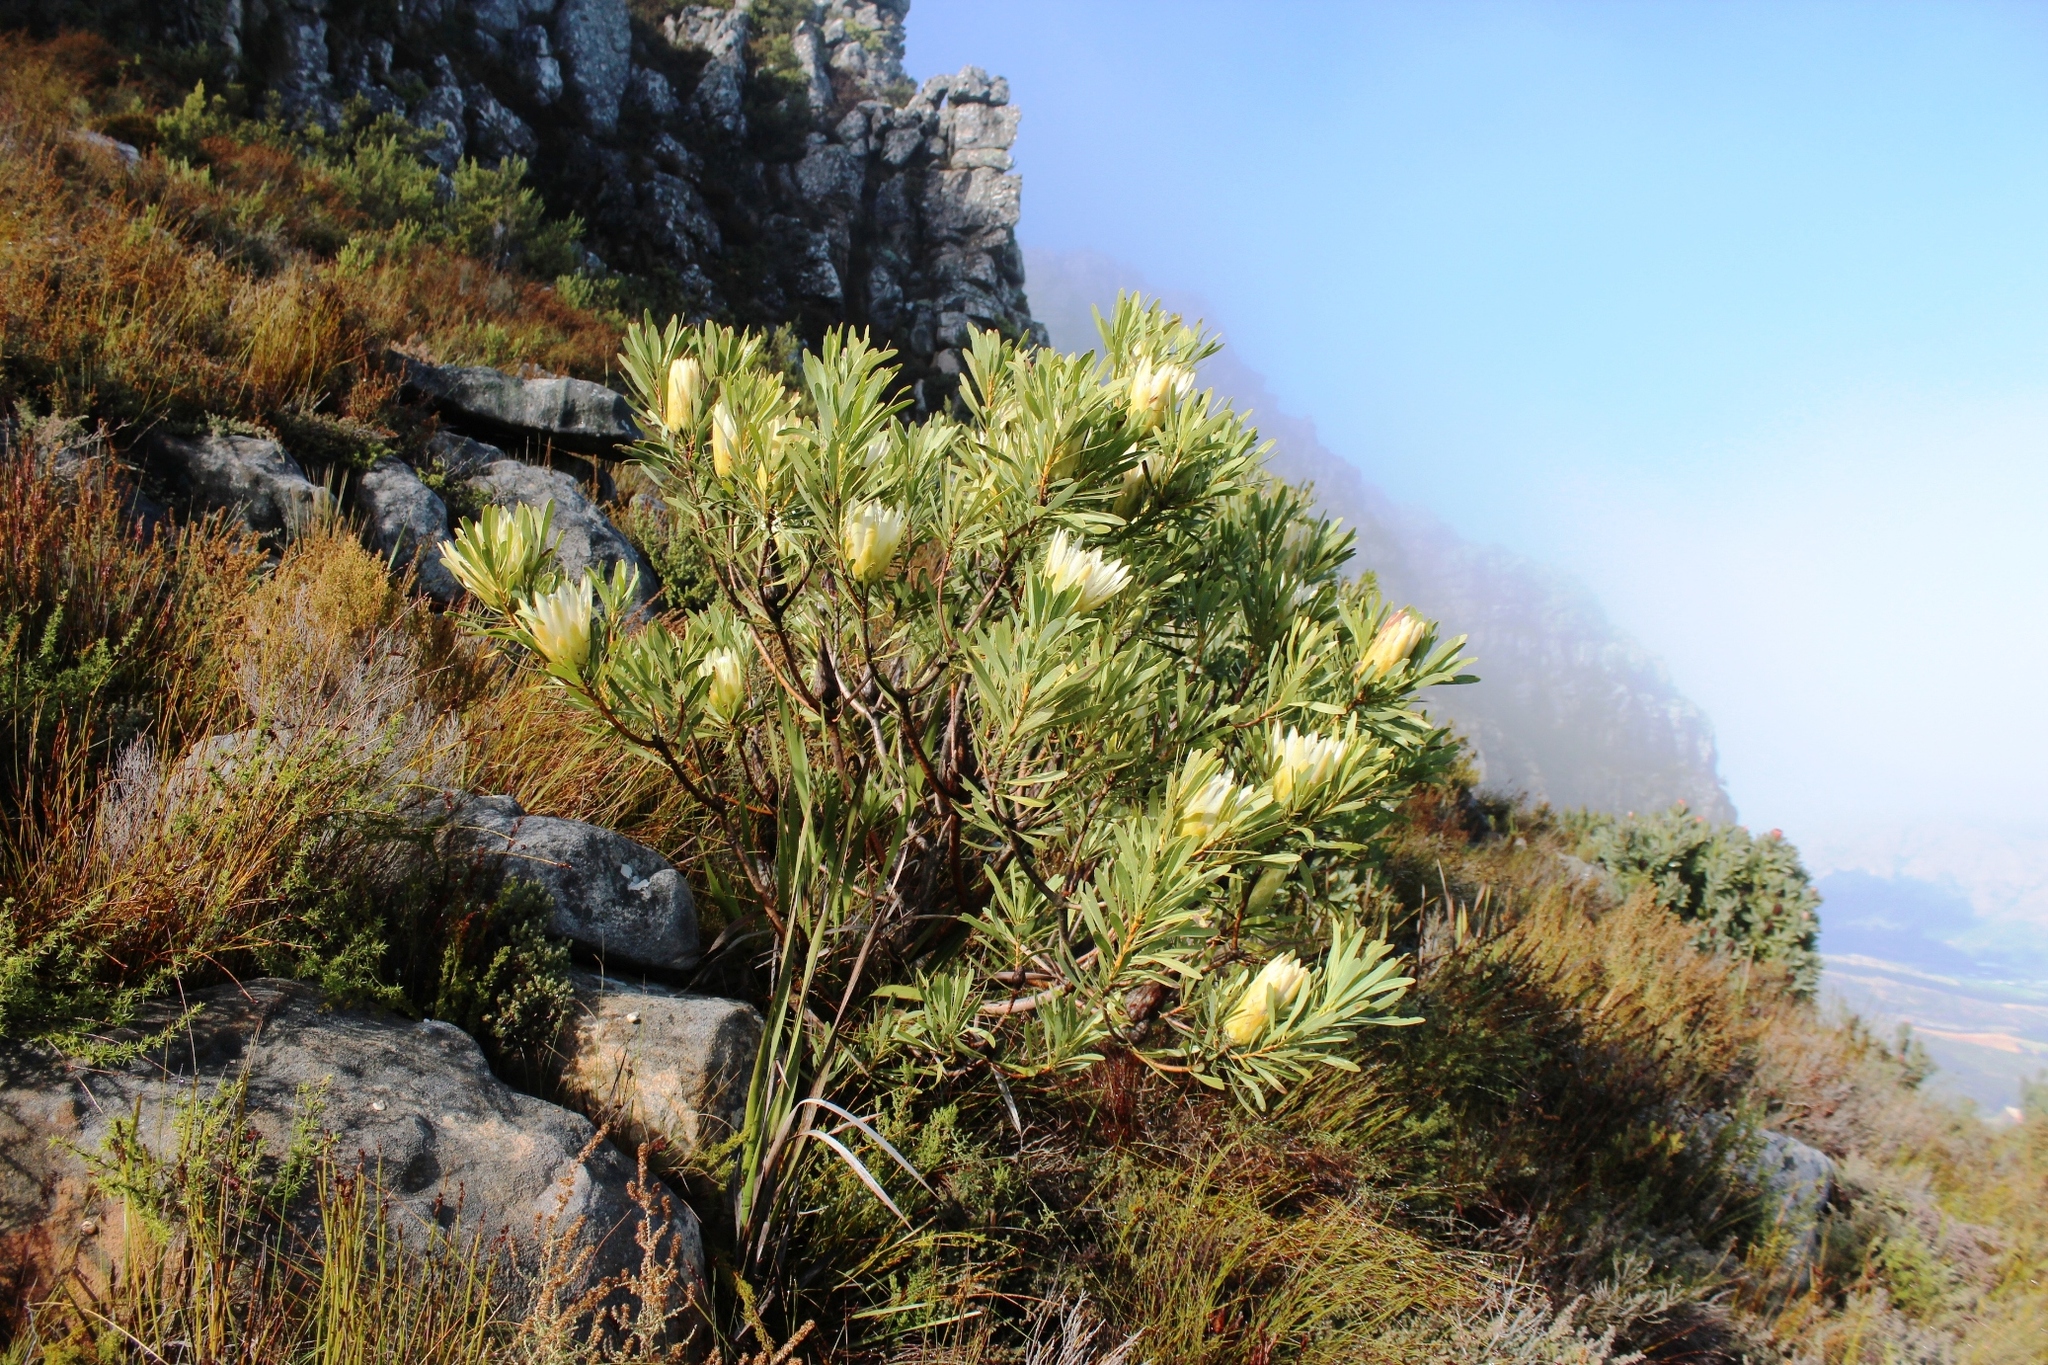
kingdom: Plantae
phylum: Tracheophyta
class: Magnoliopsida
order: Proteales
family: Proteaceae
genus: Protea
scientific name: Protea repens
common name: Sugarbush
